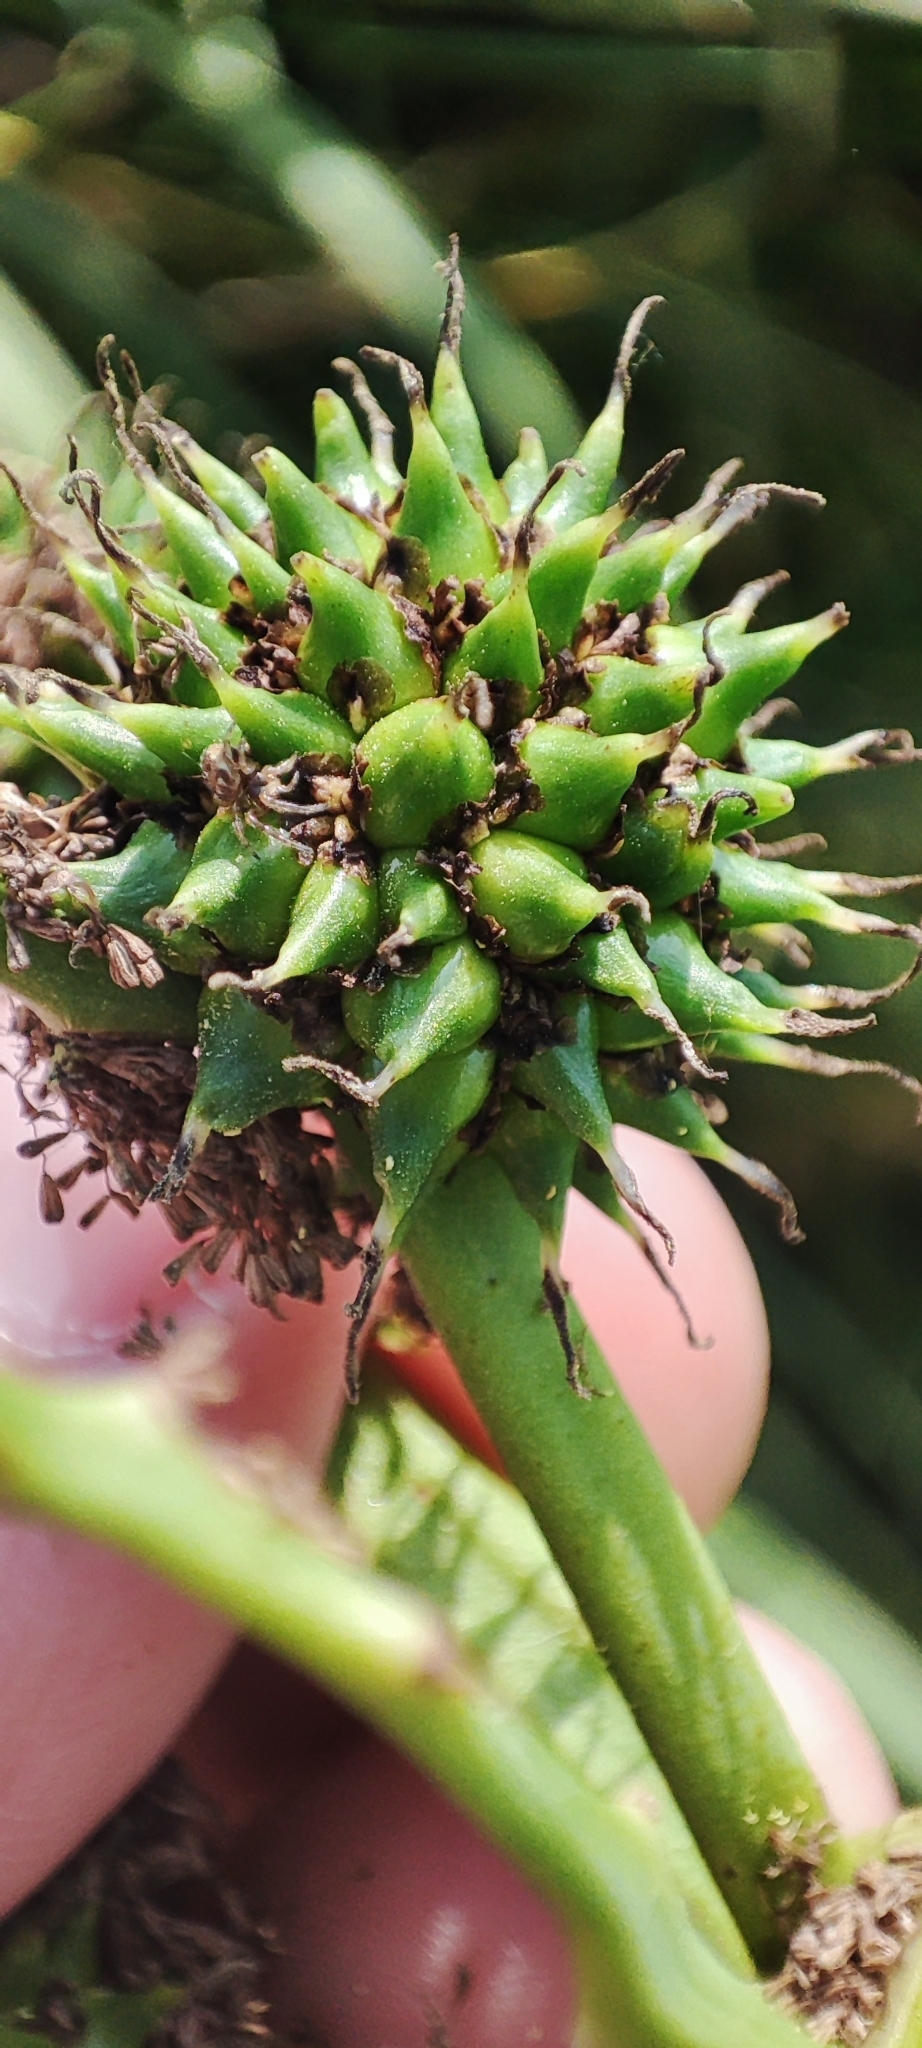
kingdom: Plantae
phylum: Tracheophyta
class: Liliopsida
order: Poales
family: Typhaceae
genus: Sparganium
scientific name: Sparganium erectum
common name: Branched bur-reed
